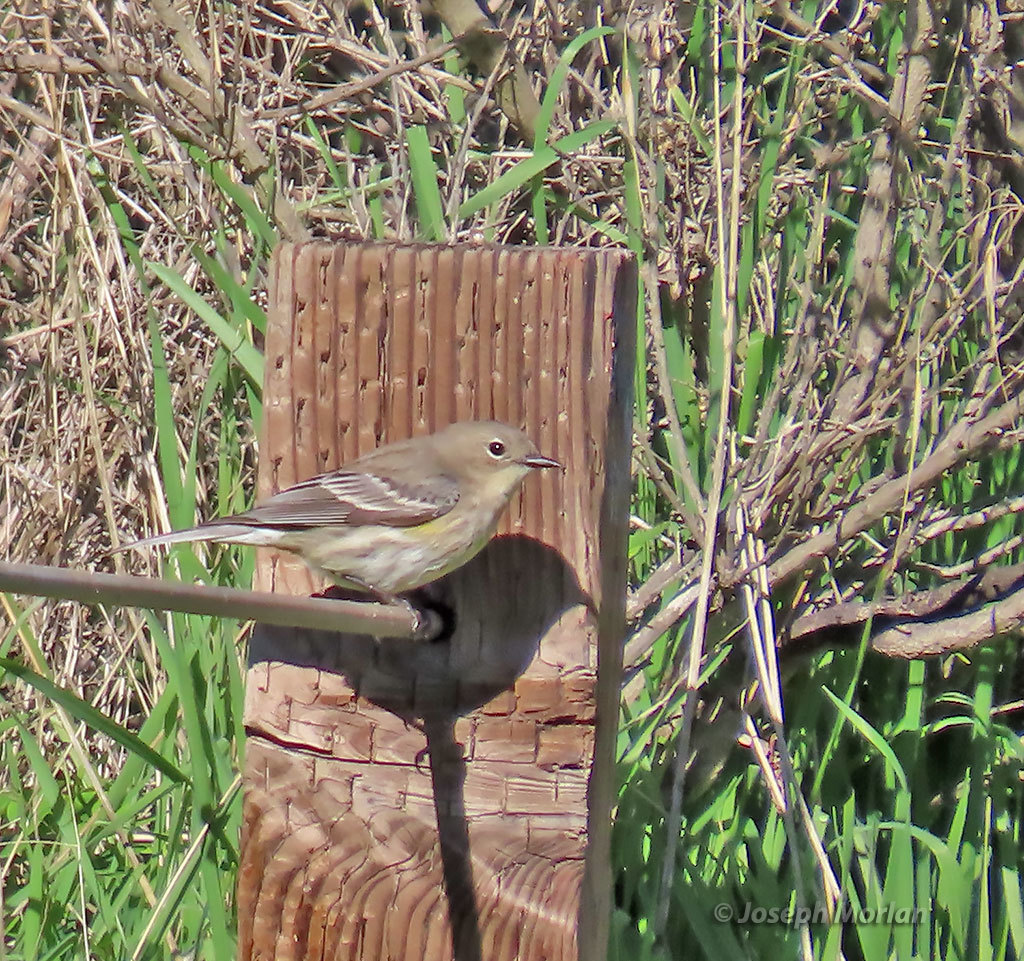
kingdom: Animalia
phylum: Chordata
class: Aves
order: Passeriformes
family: Parulidae
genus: Setophaga
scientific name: Setophaga coronata
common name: Myrtle warbler
